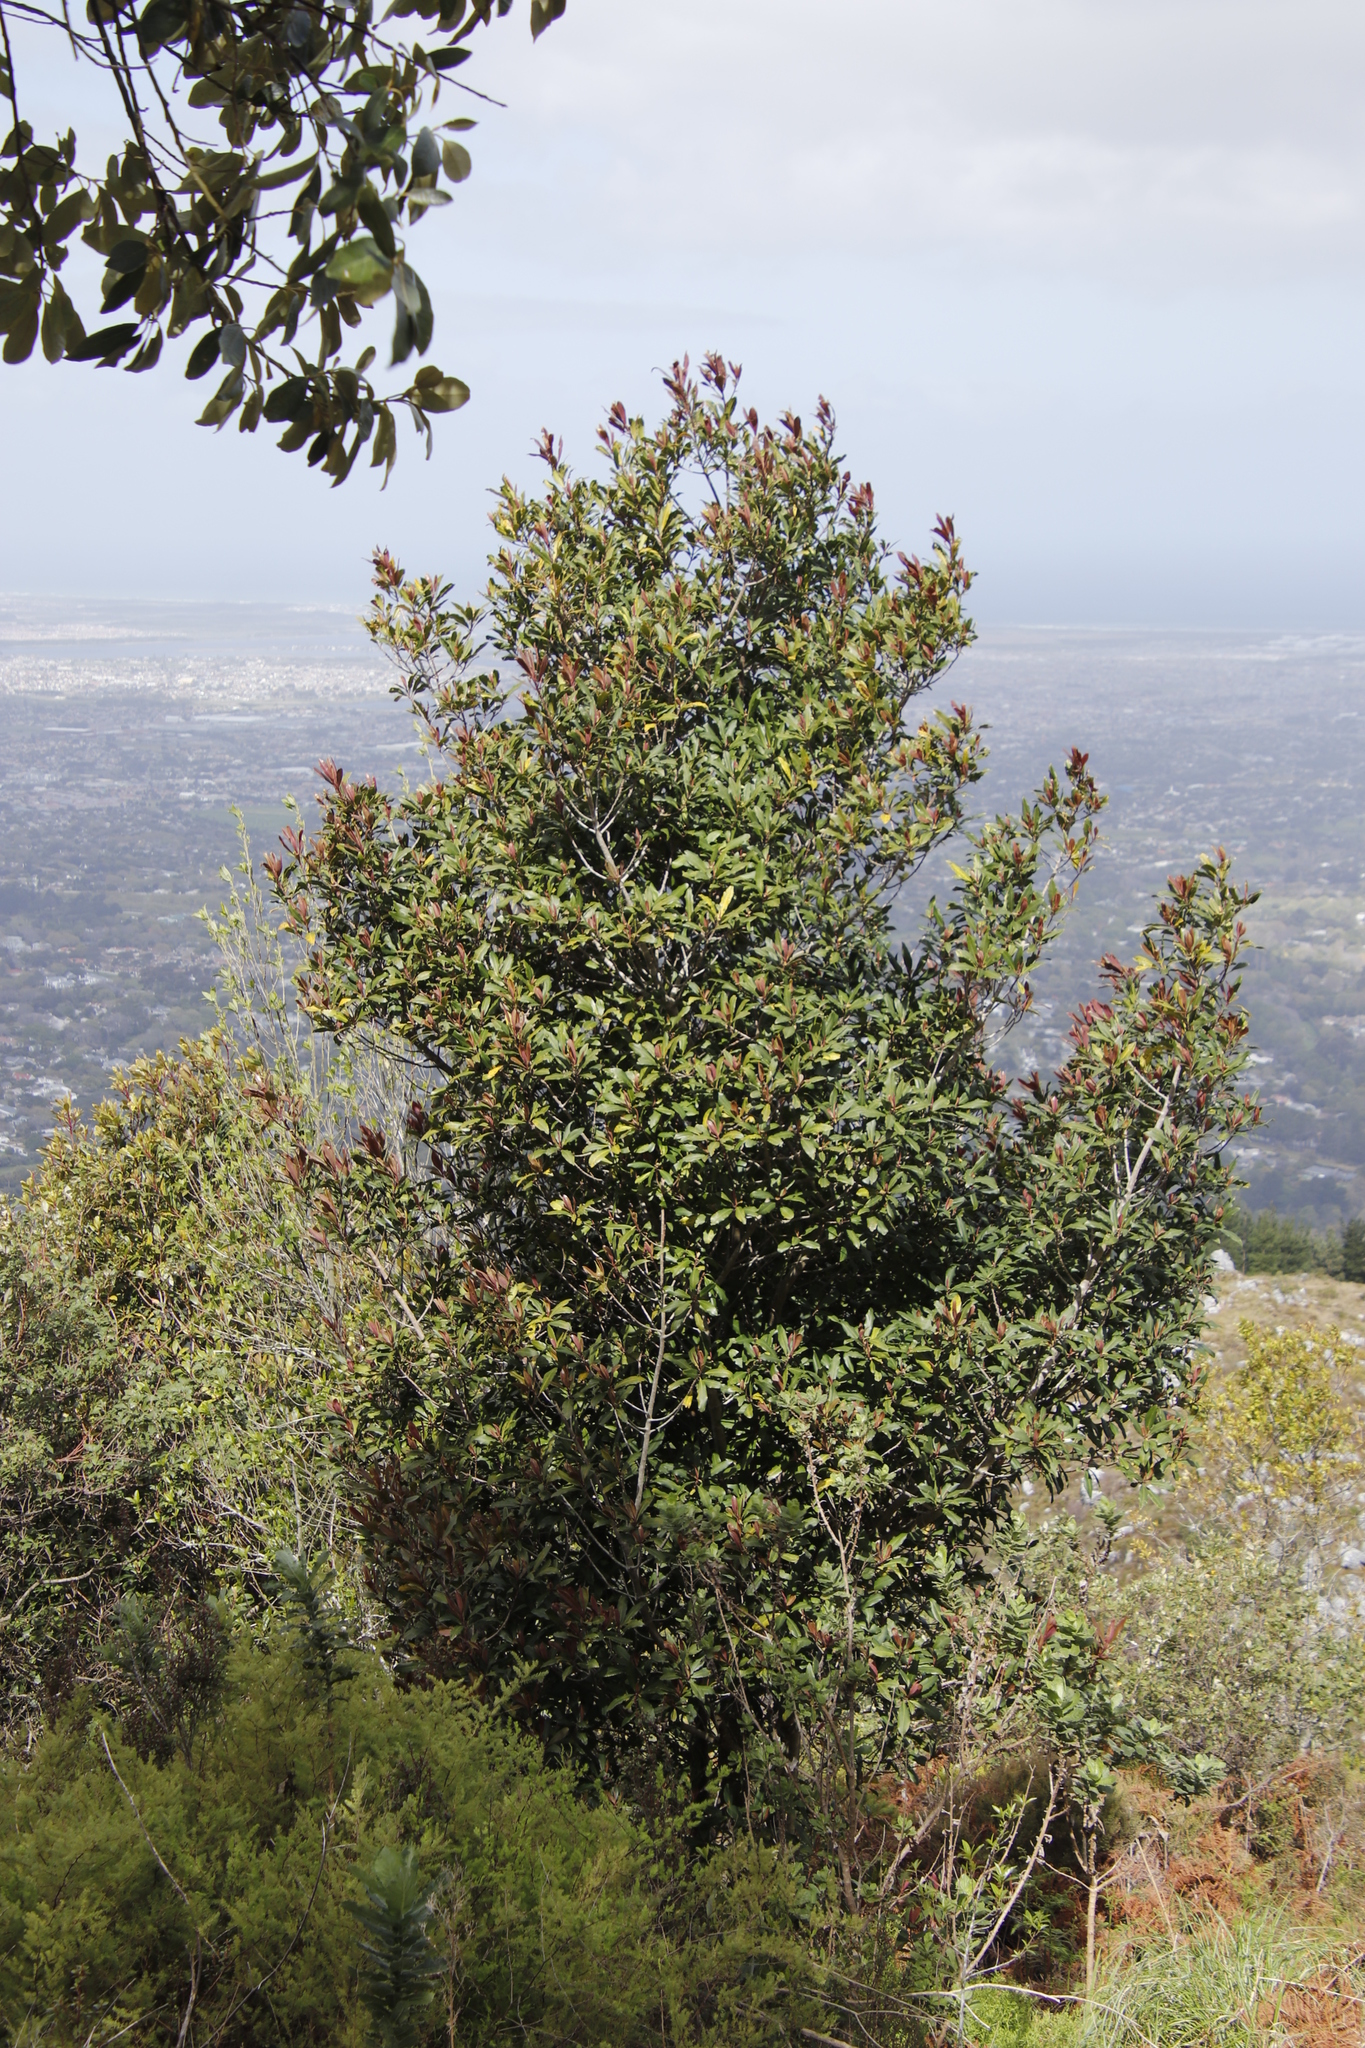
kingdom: Plantae
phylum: Tracheophyta
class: Magnoliopsida
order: Ericales
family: Primulaceae
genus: Myrsine
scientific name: Myrsine melanophloeos
